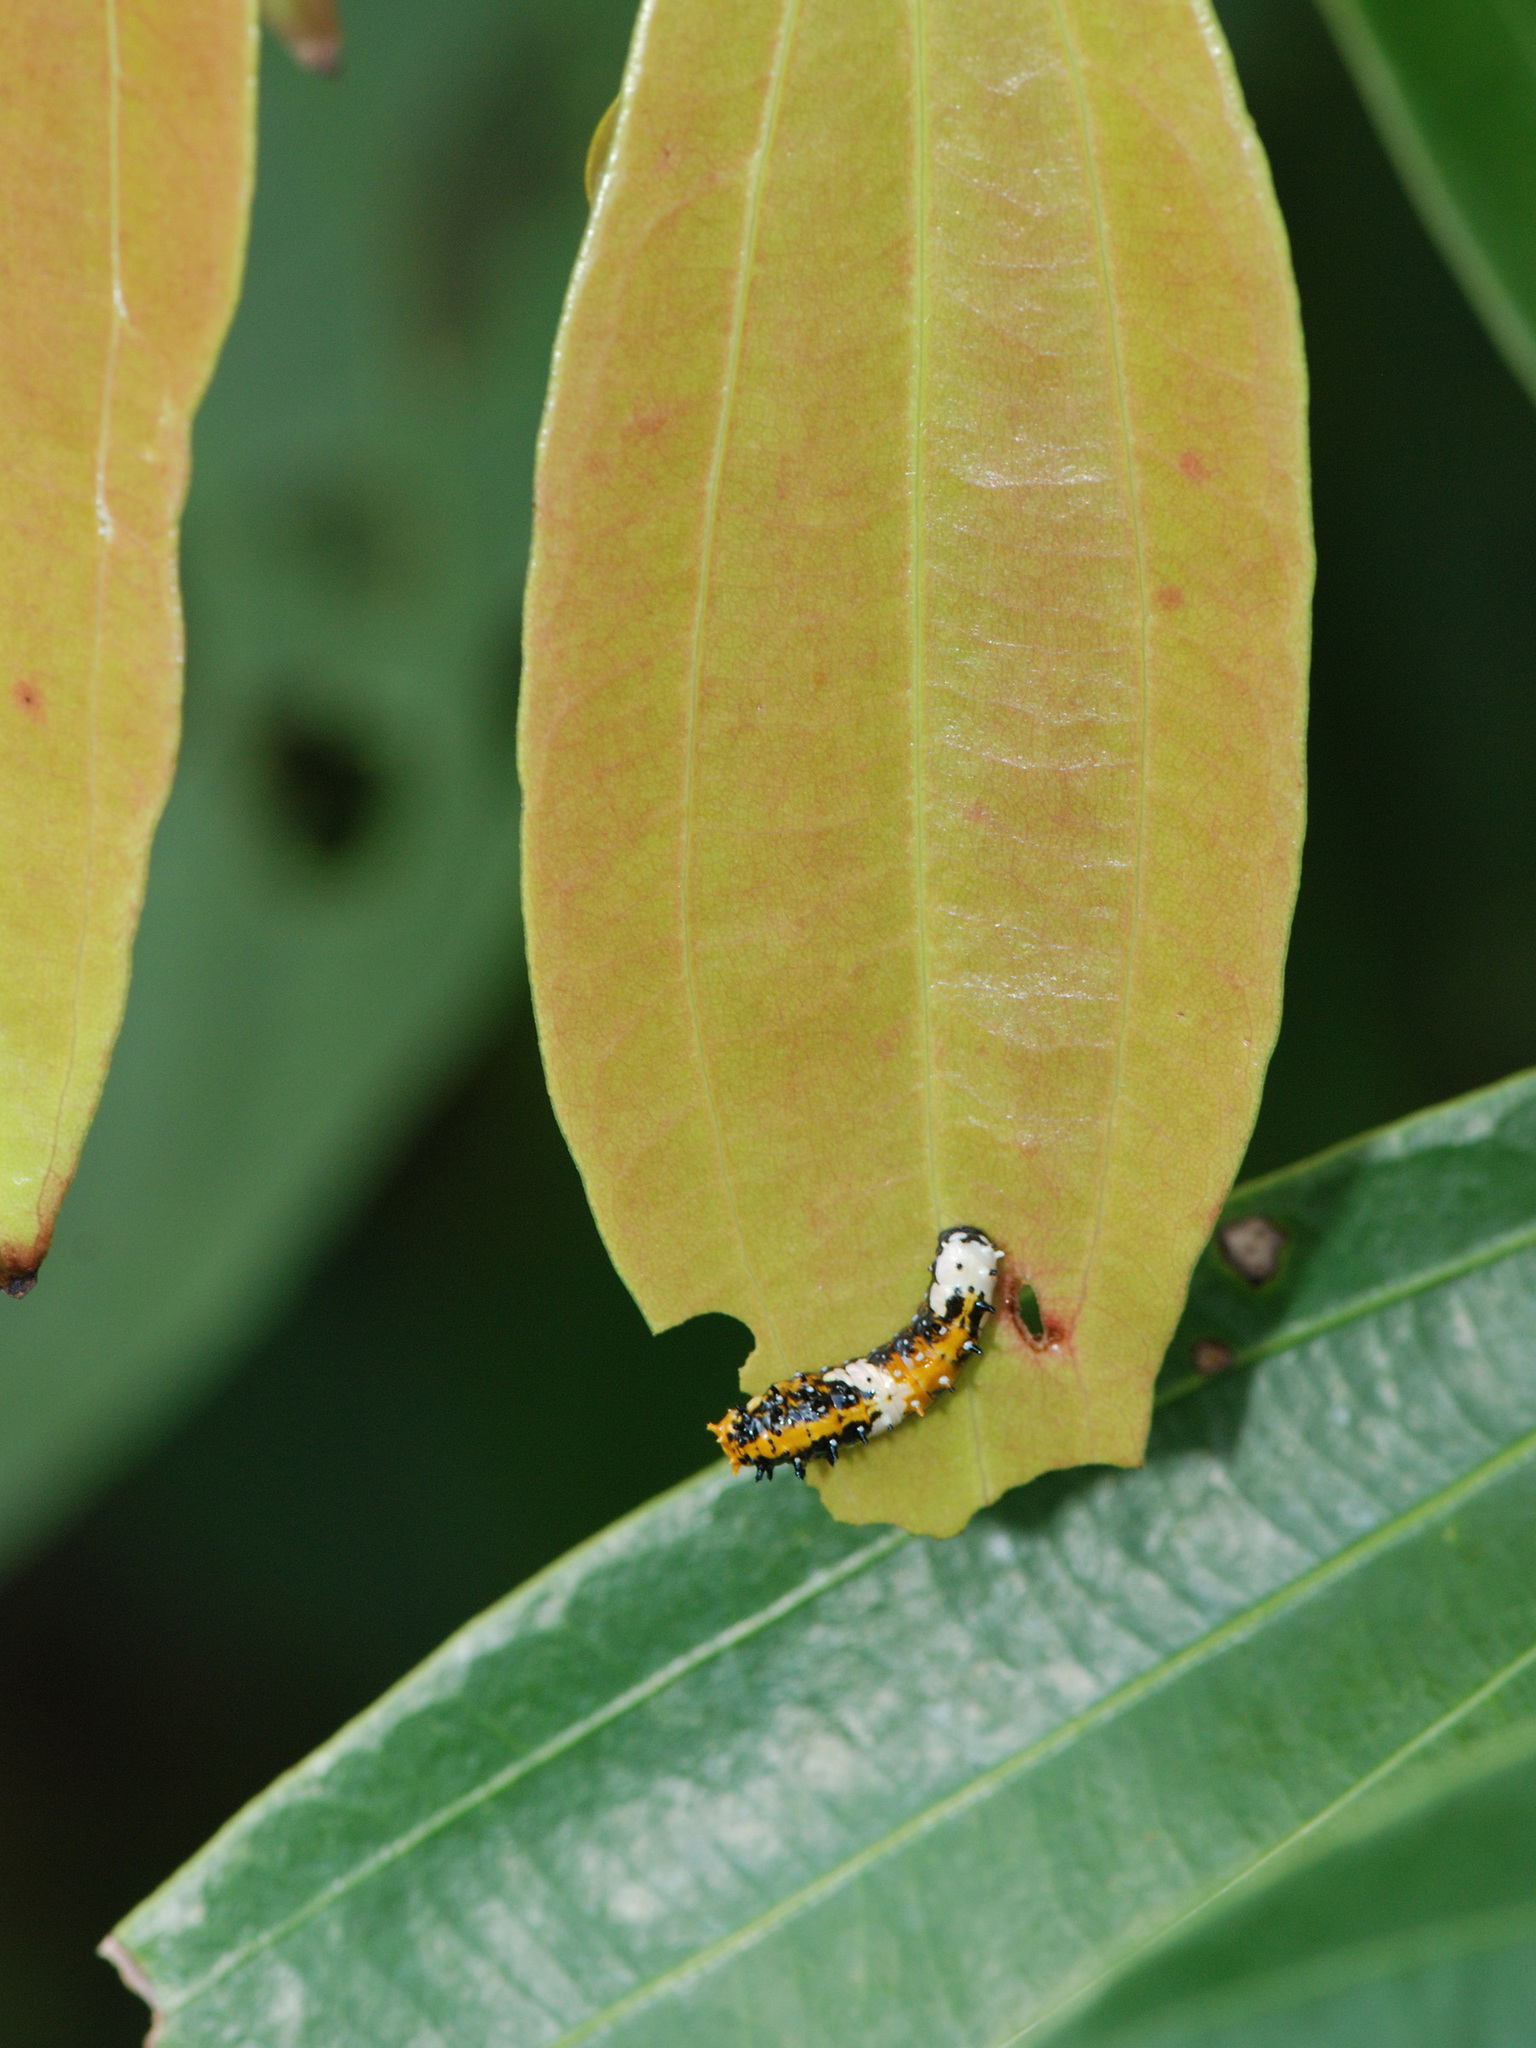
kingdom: Animalia
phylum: Arthropoda
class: Insecta
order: Lepidoptera
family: Papilionidae
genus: Chilasa
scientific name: Chilasa clytia
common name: Common mime
